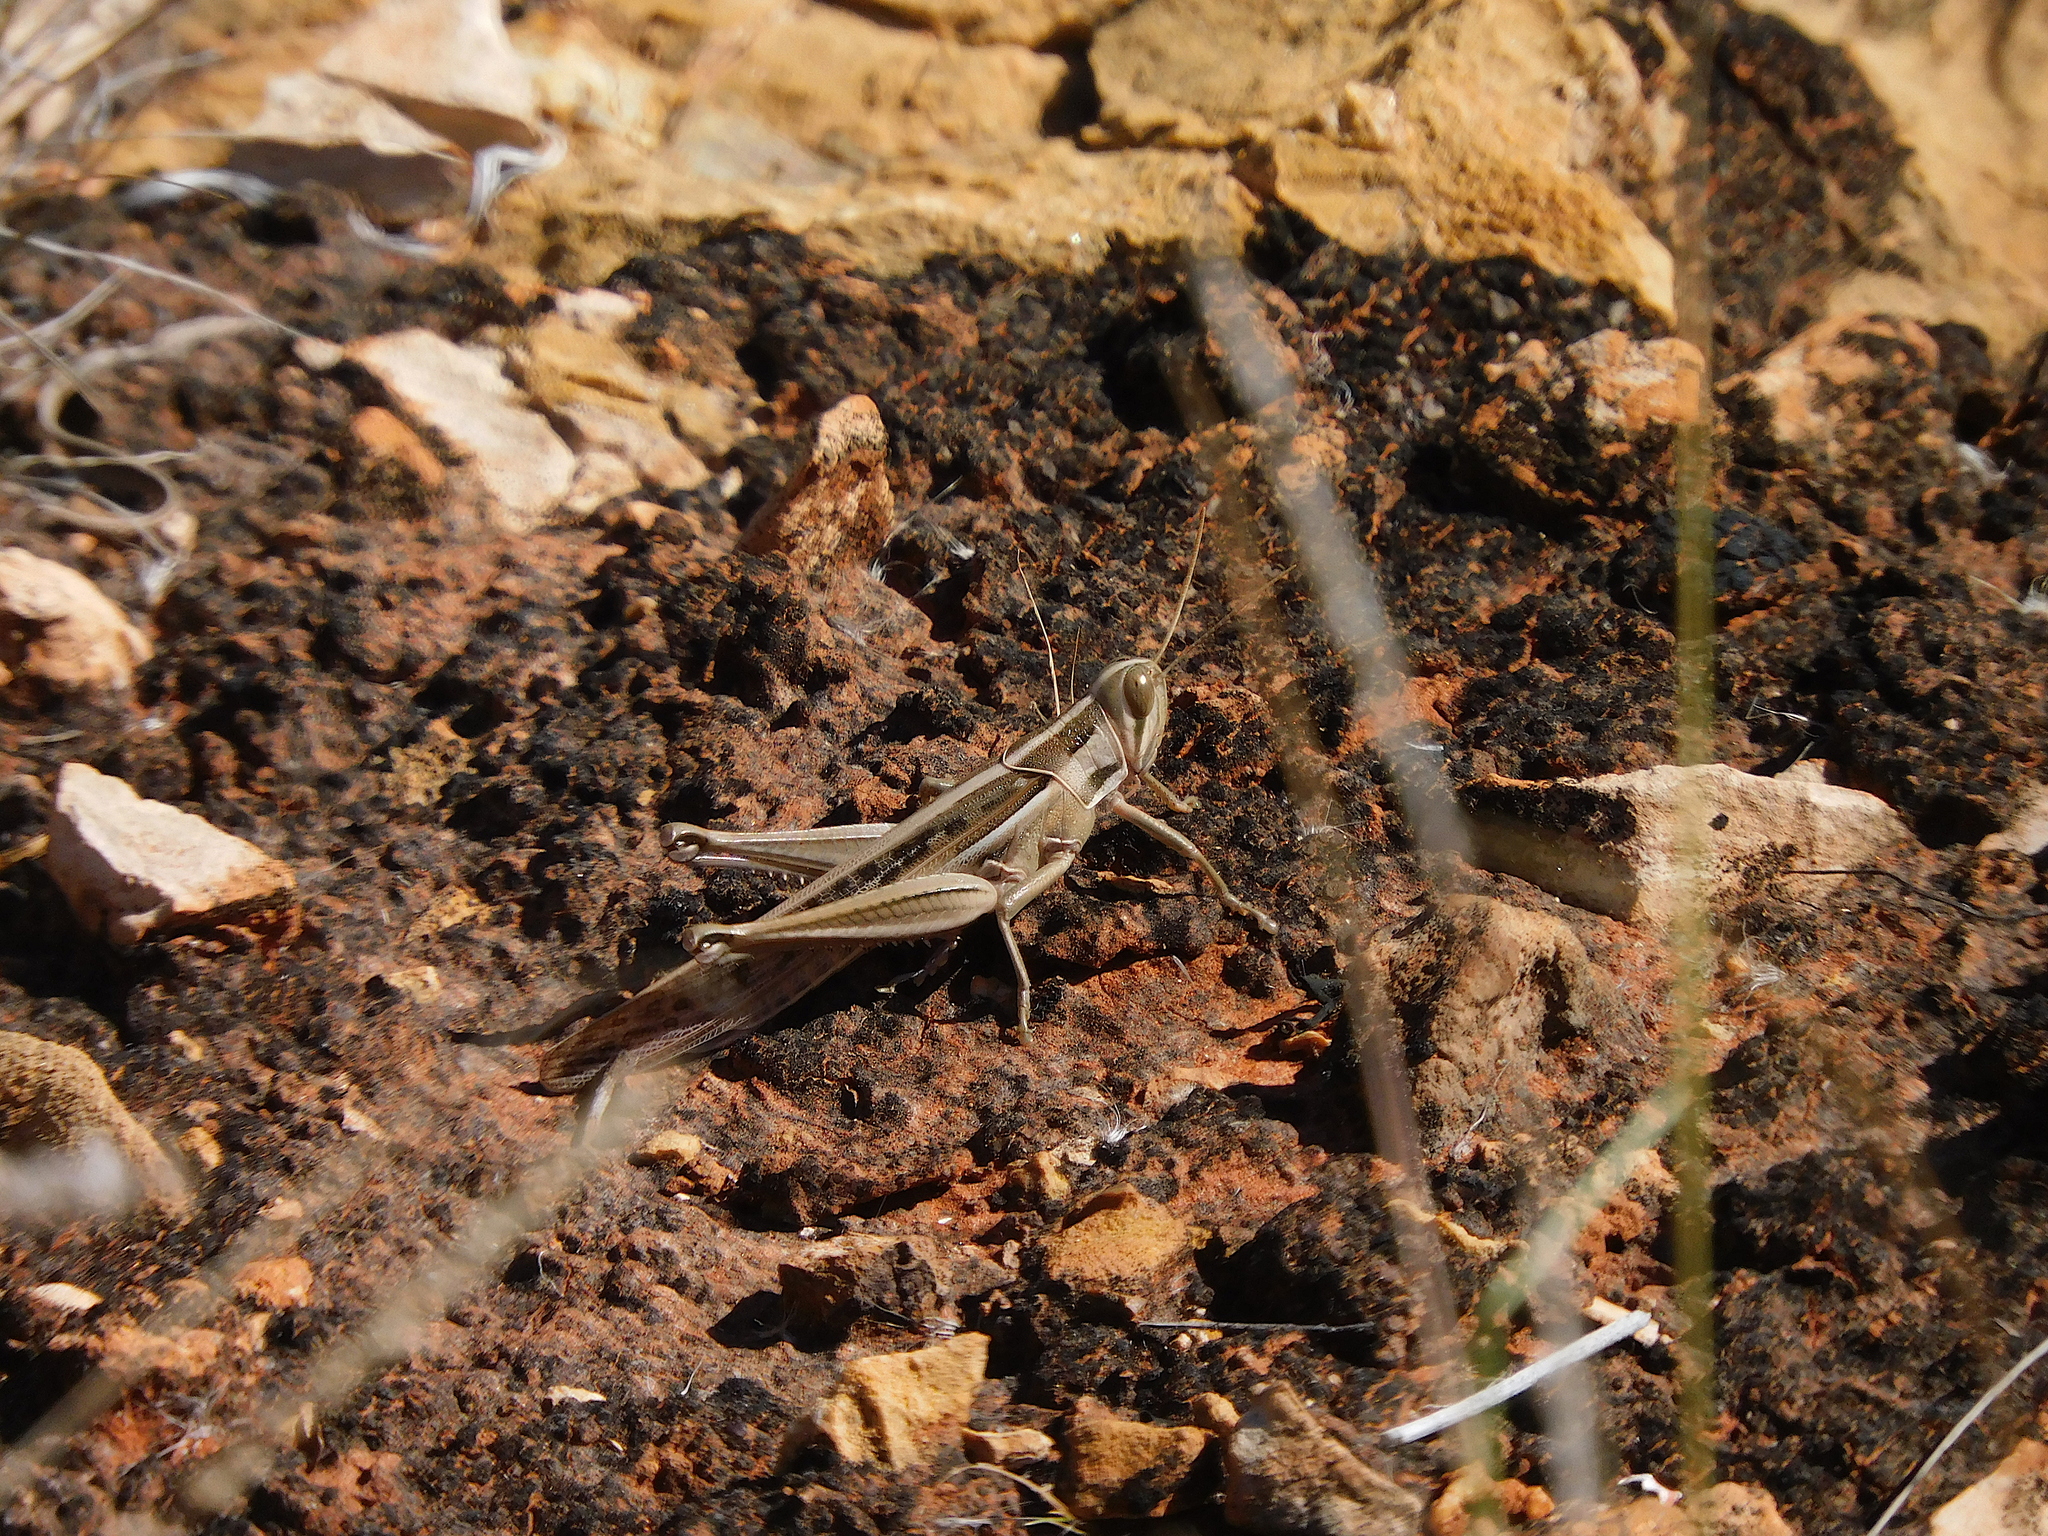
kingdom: Animalia
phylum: Arthropoda
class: Insecta
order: Orthoptera
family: Acrididae
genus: Austracris
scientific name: Austracris guttulosa
